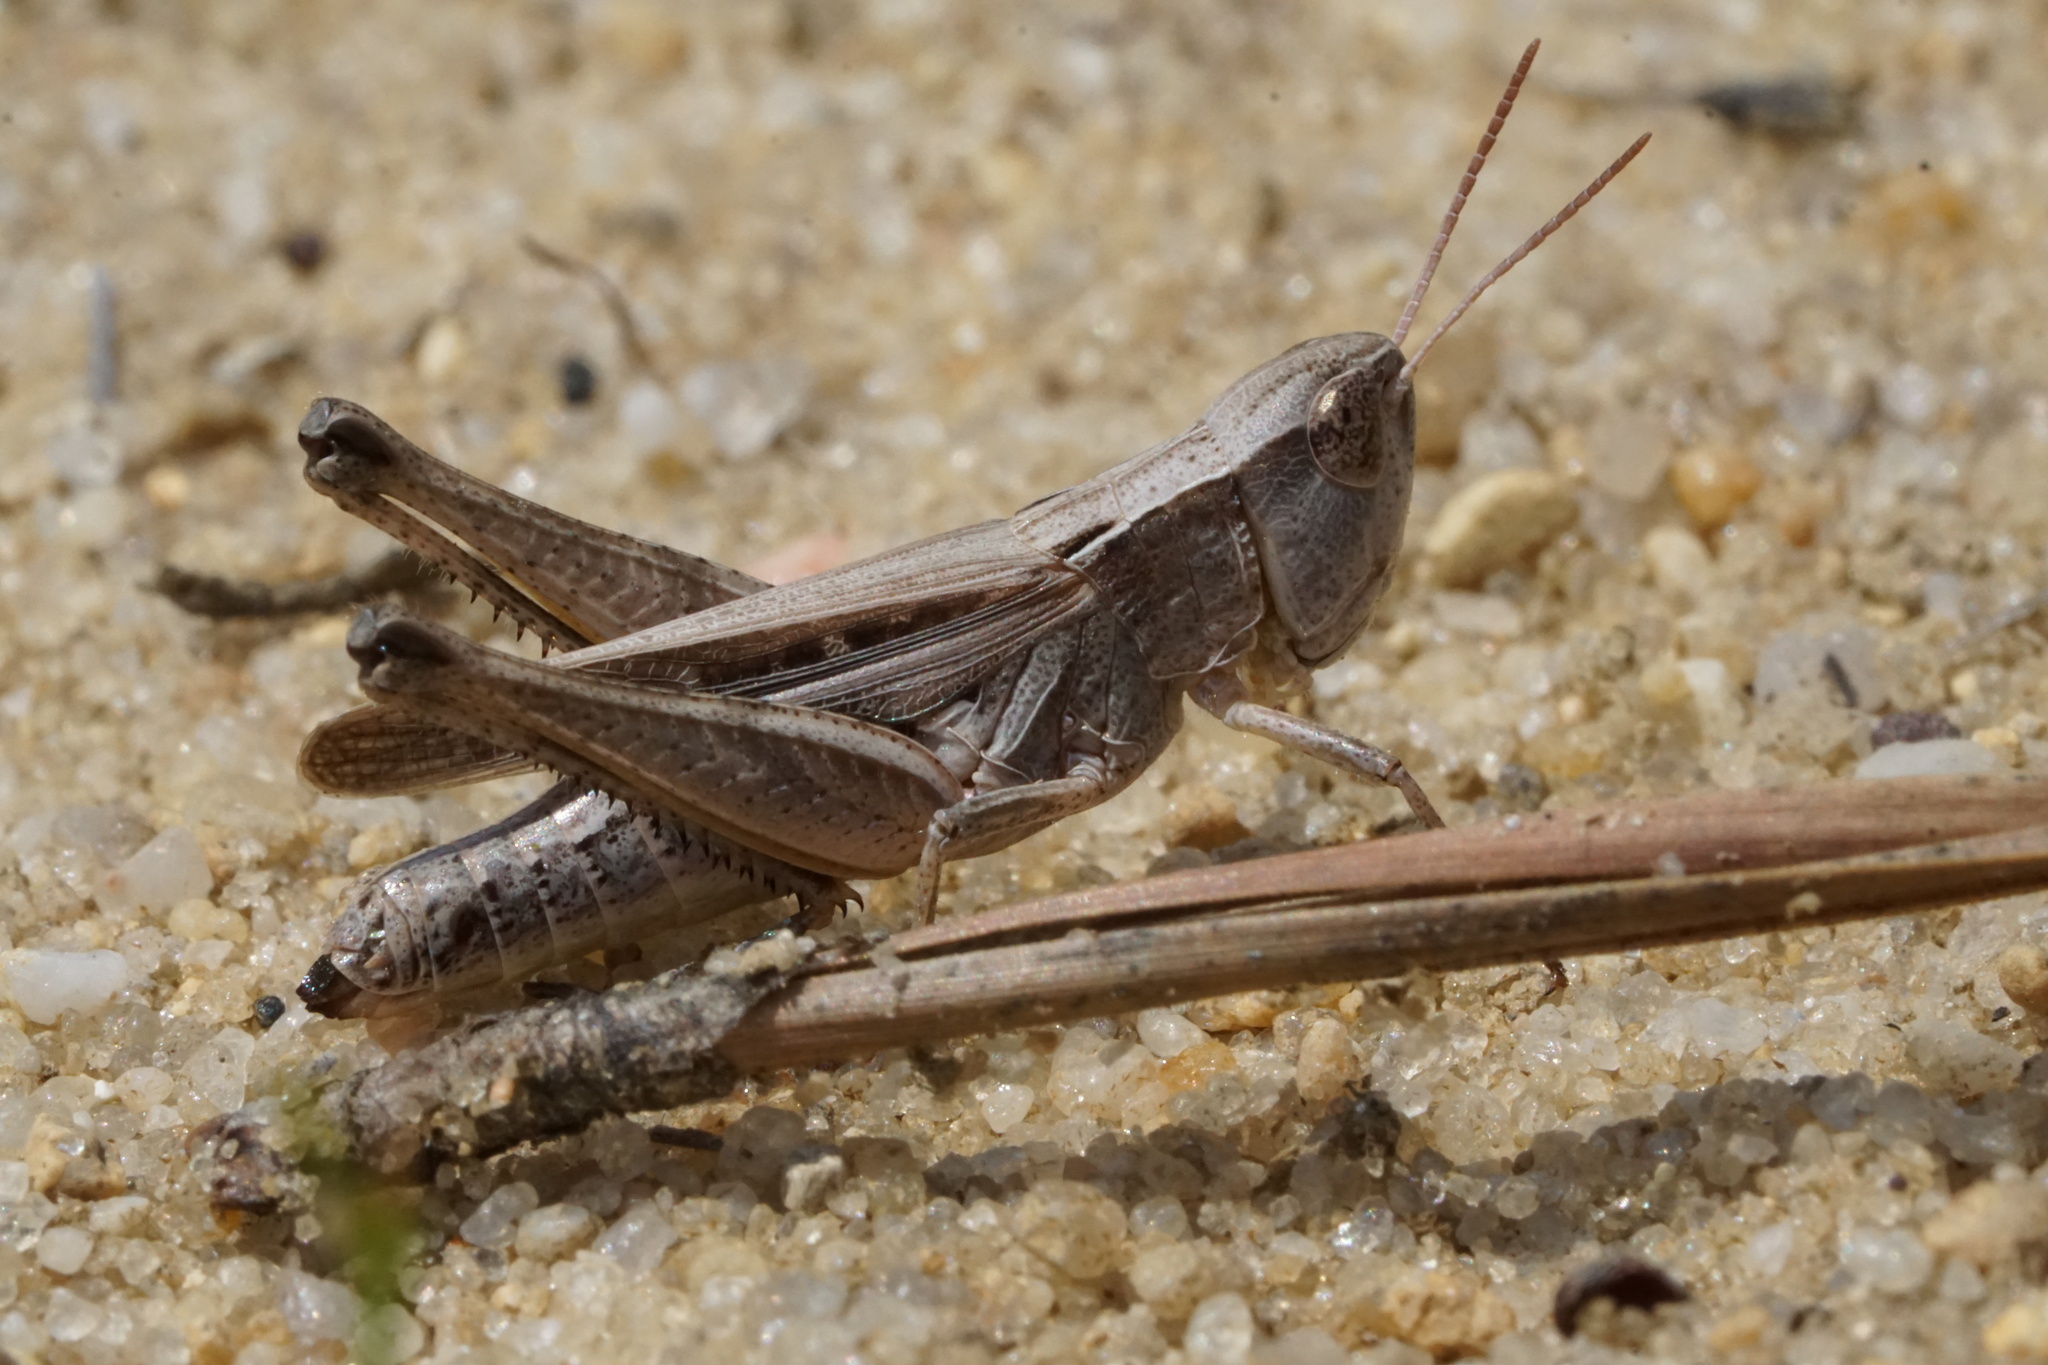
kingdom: Animalia
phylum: Arthropoda
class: Insecta
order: Orthoptera
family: Acrididae
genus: Orphulella
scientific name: Orphulella speciosa
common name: Pasture grasshopper
